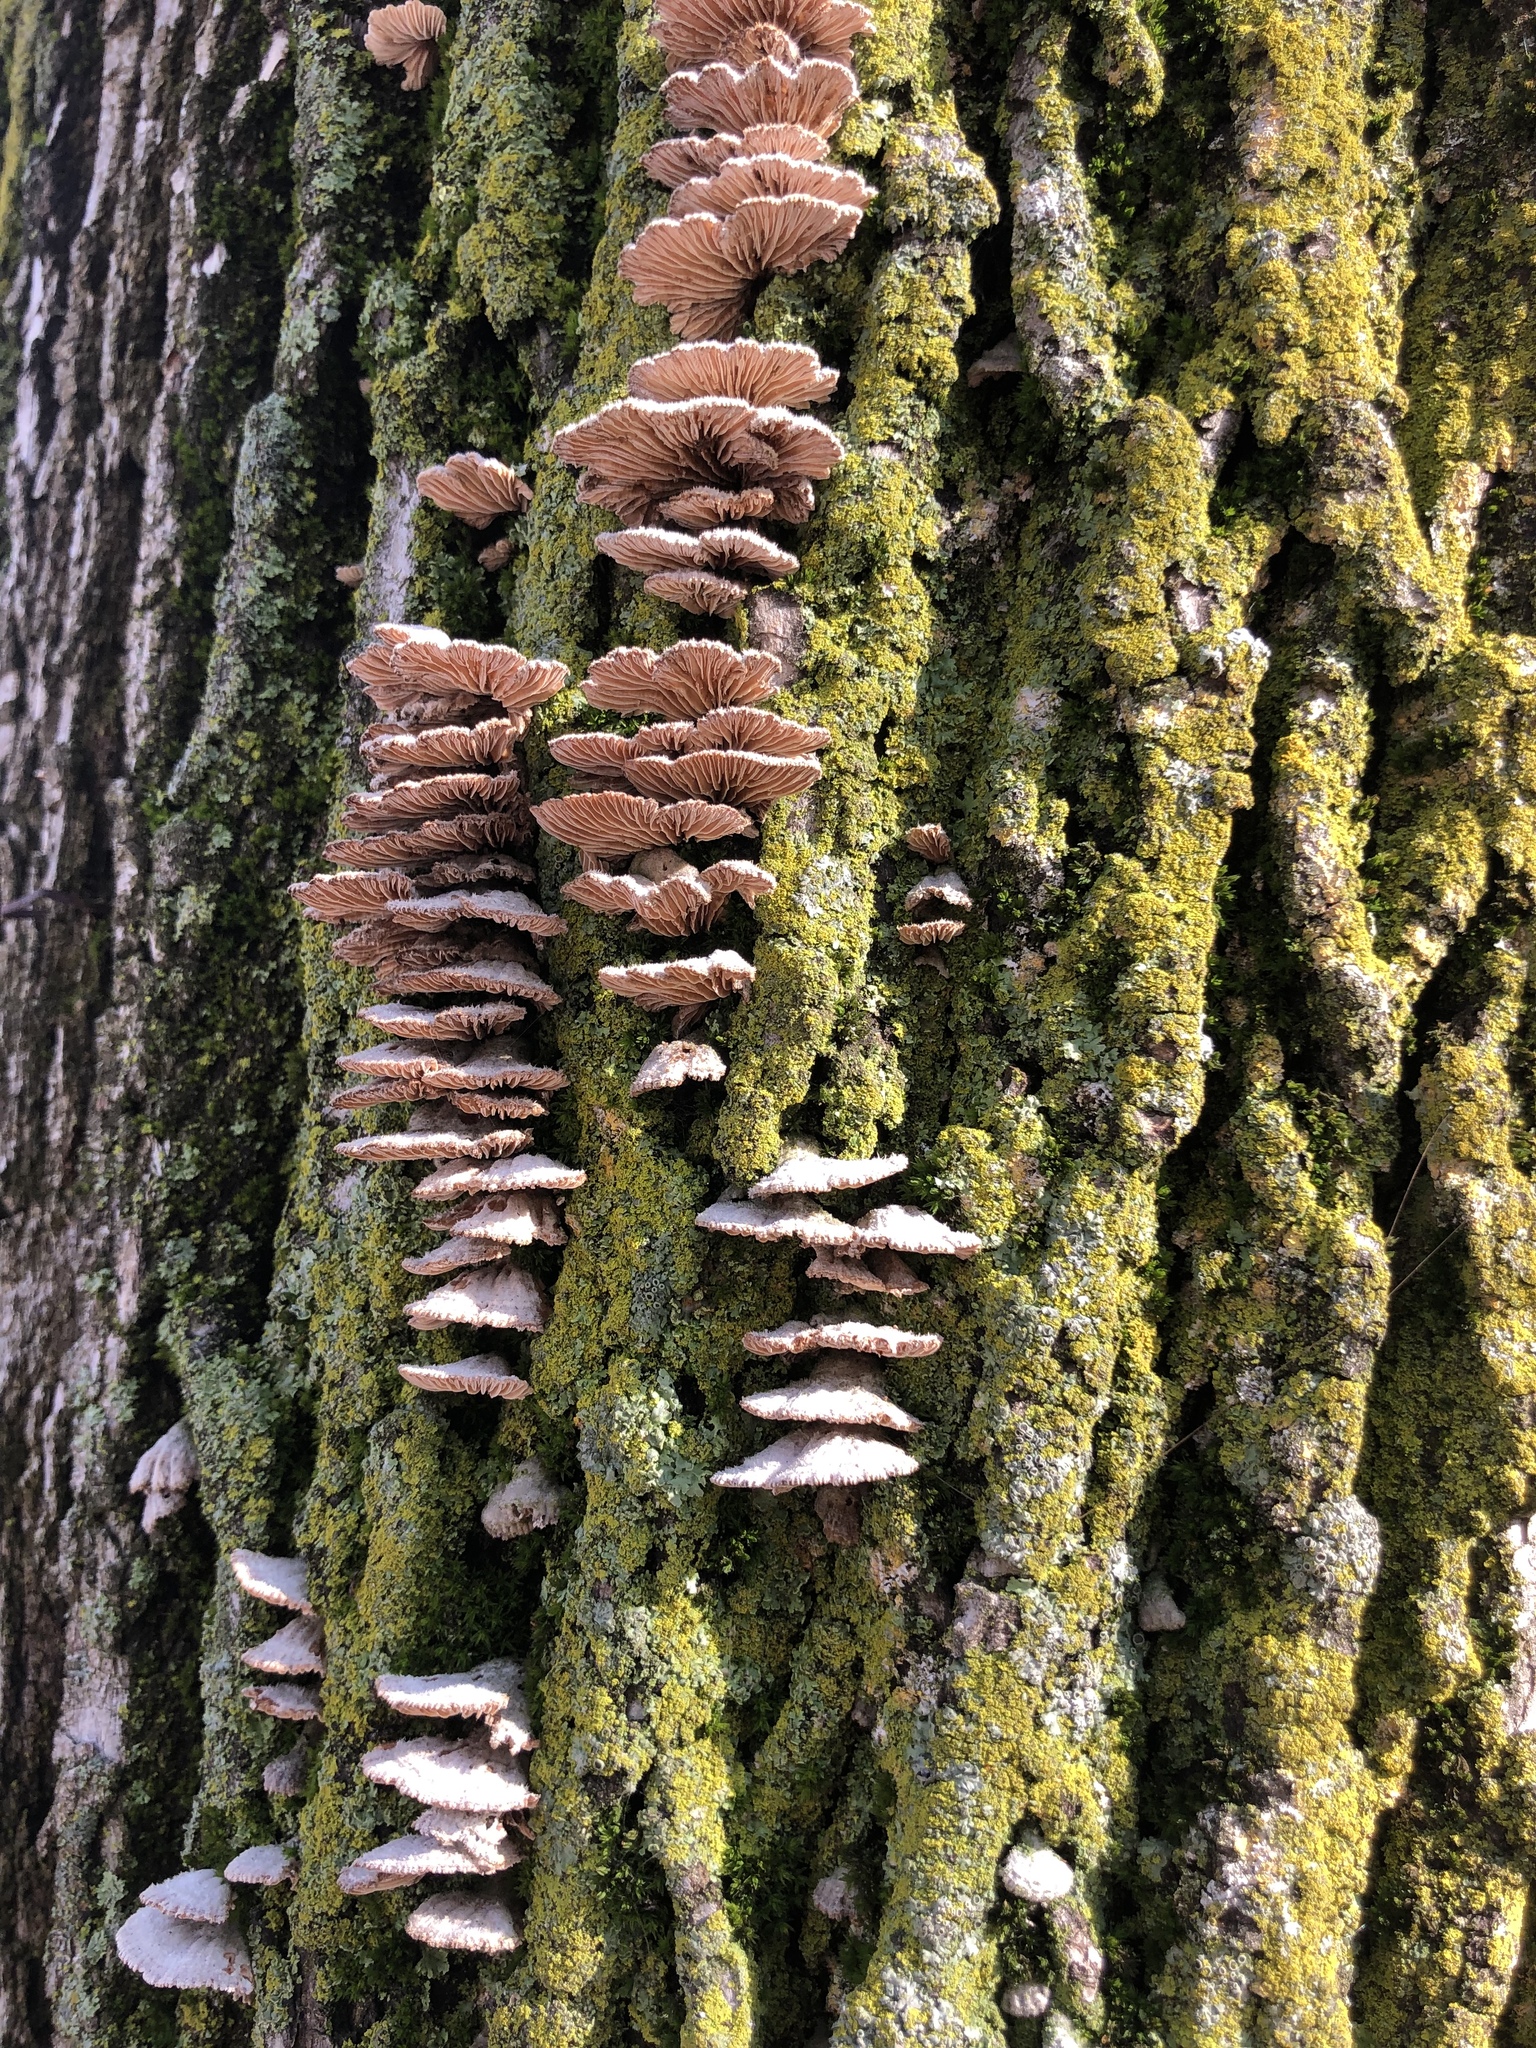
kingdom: Fungi
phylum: Basidiomycota
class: Agaricomycetes
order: Agaricales
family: Schizophyllaceae
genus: Schizophyllum
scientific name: Schizophyllum commune
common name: Common porecrust
